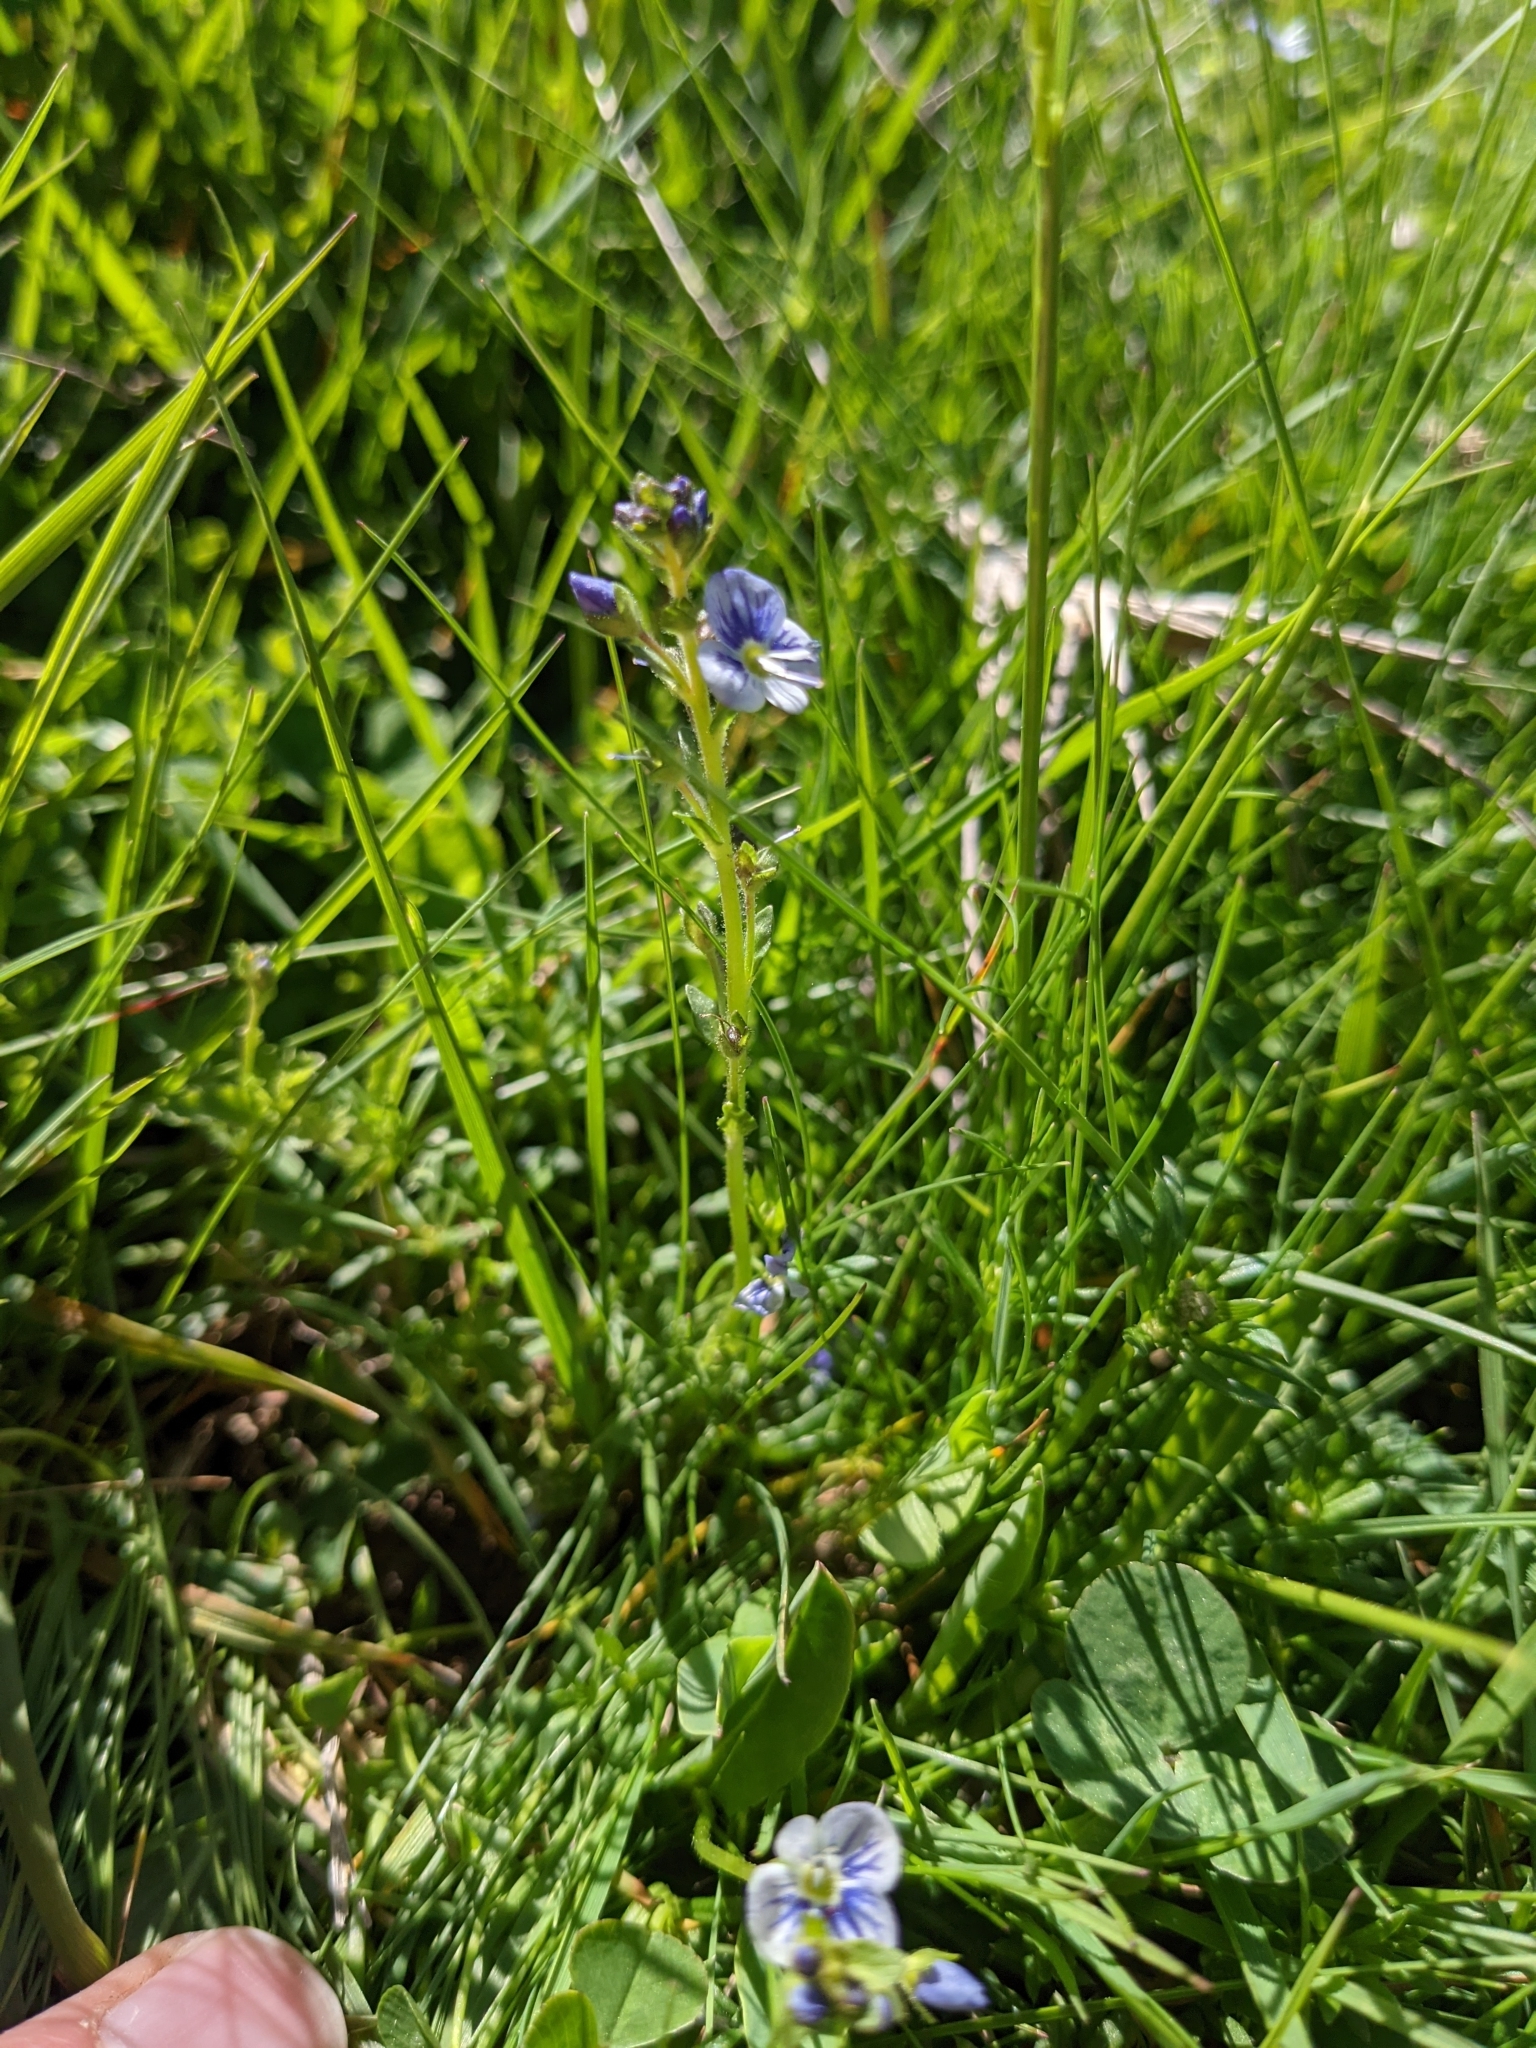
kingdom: Plantae
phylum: Tracheophyta
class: Magnoliopsida
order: Lamiales
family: Plantaginaceae
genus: Veronica
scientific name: Veronica serpyllifolia
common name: Thyme-leaved speedwell
